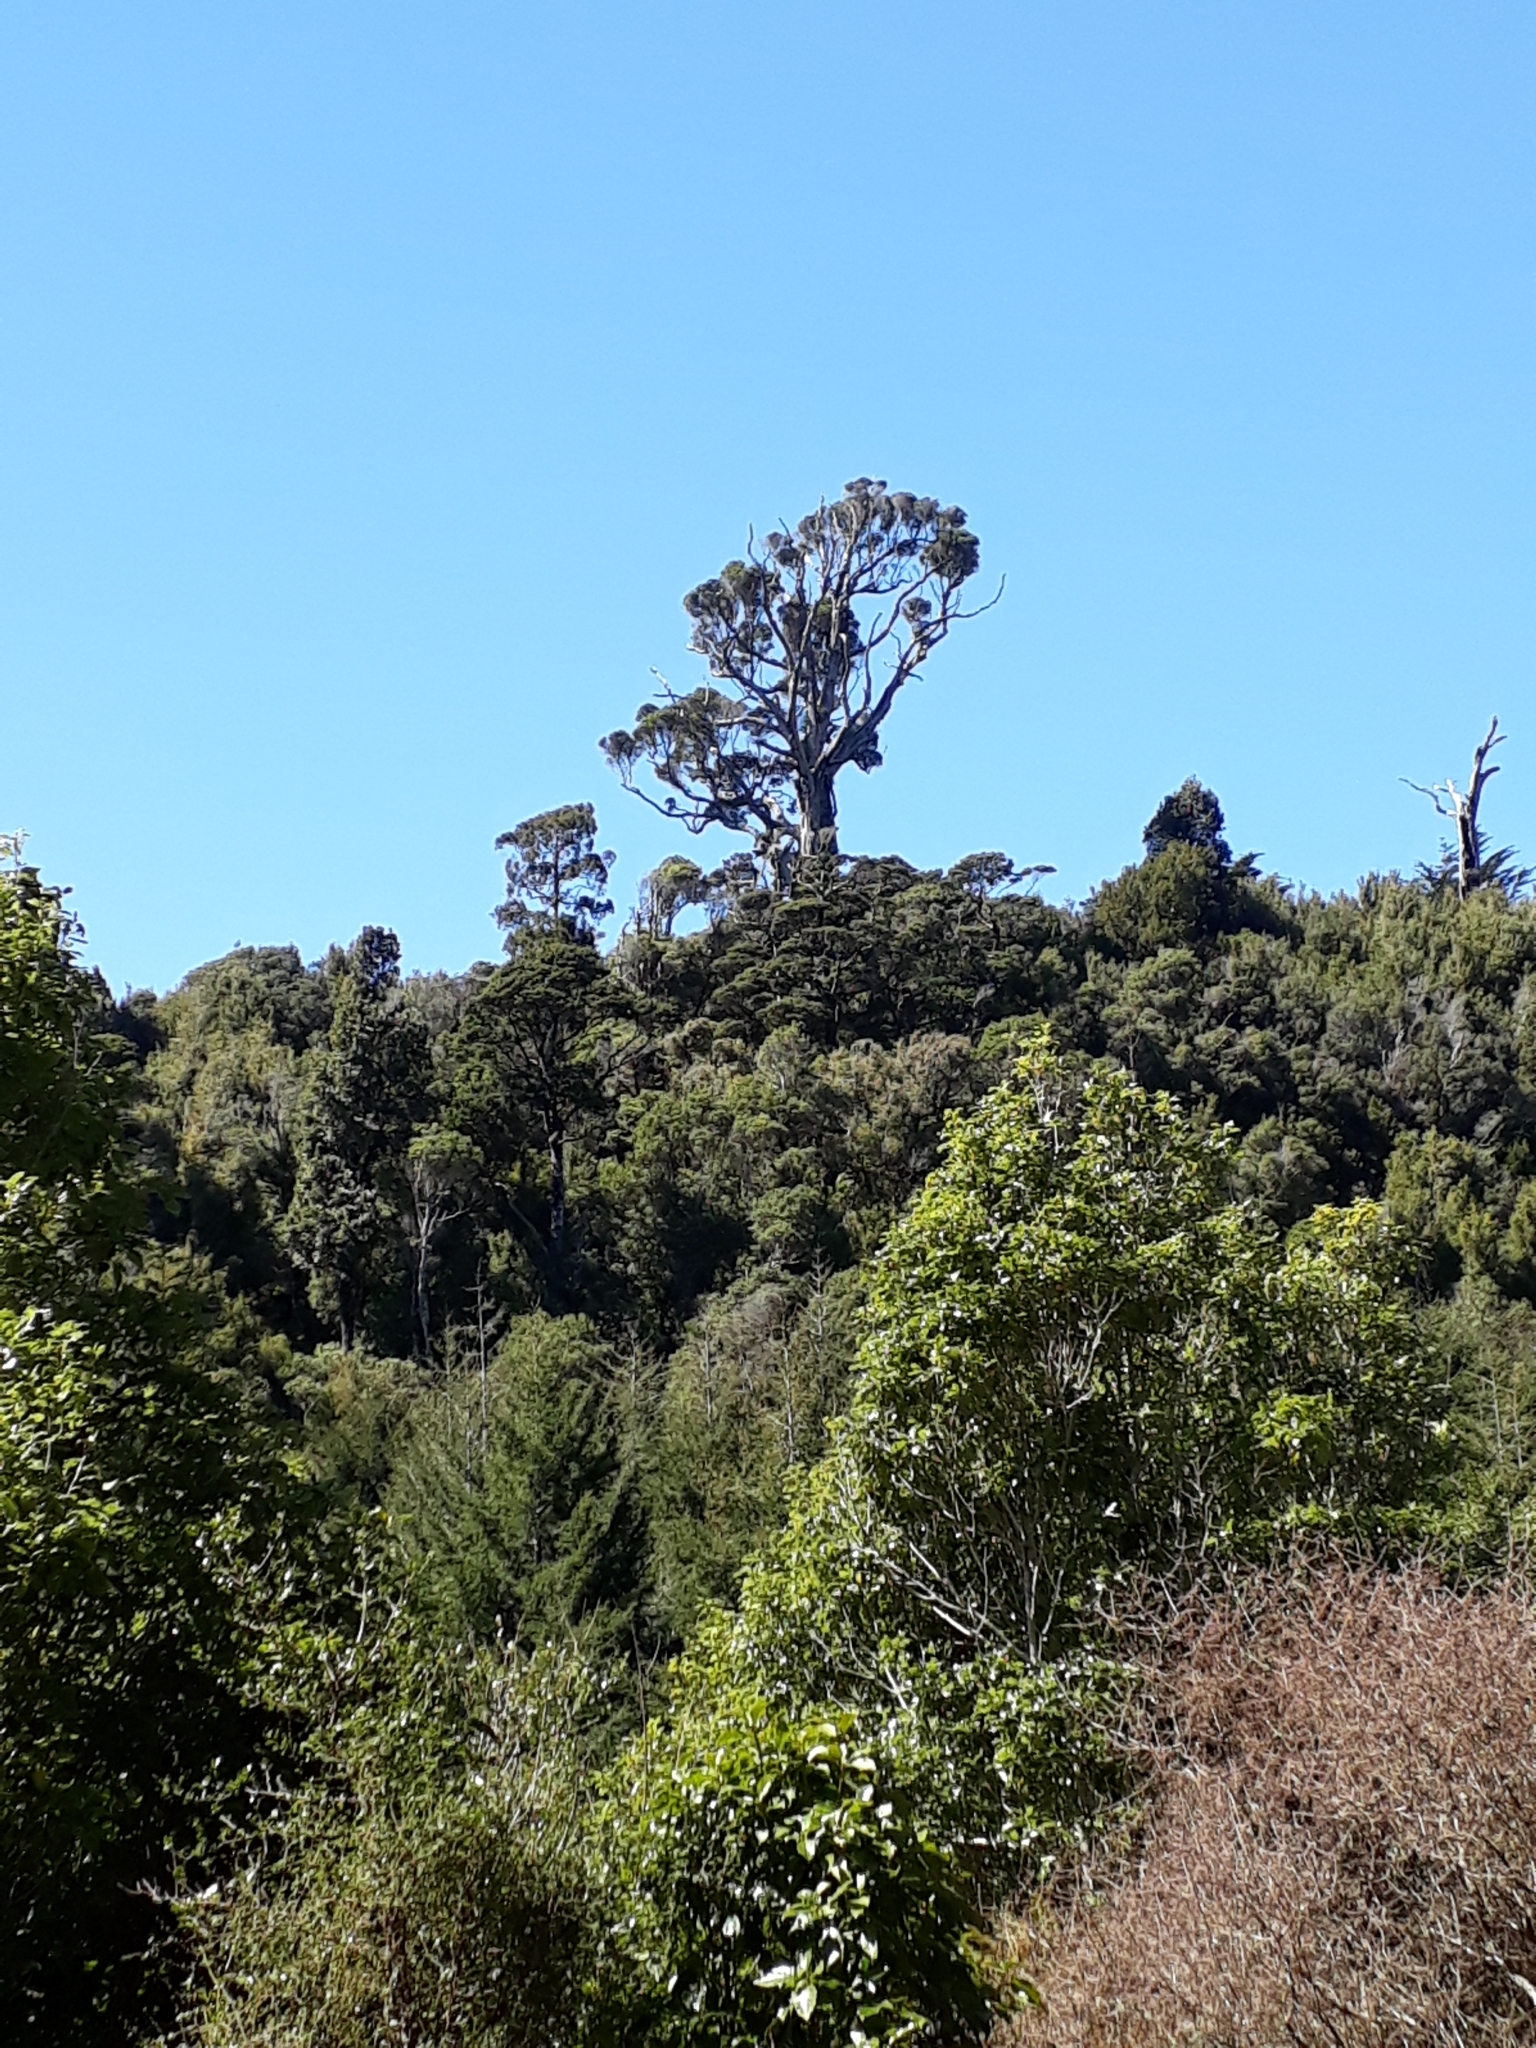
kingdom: Plantae
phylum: Tracheophyta
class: Magnoliopsida
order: Myrtales
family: Myrtaceae
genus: Metrosideros
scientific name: Metrosideros robusta
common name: Northern rata
